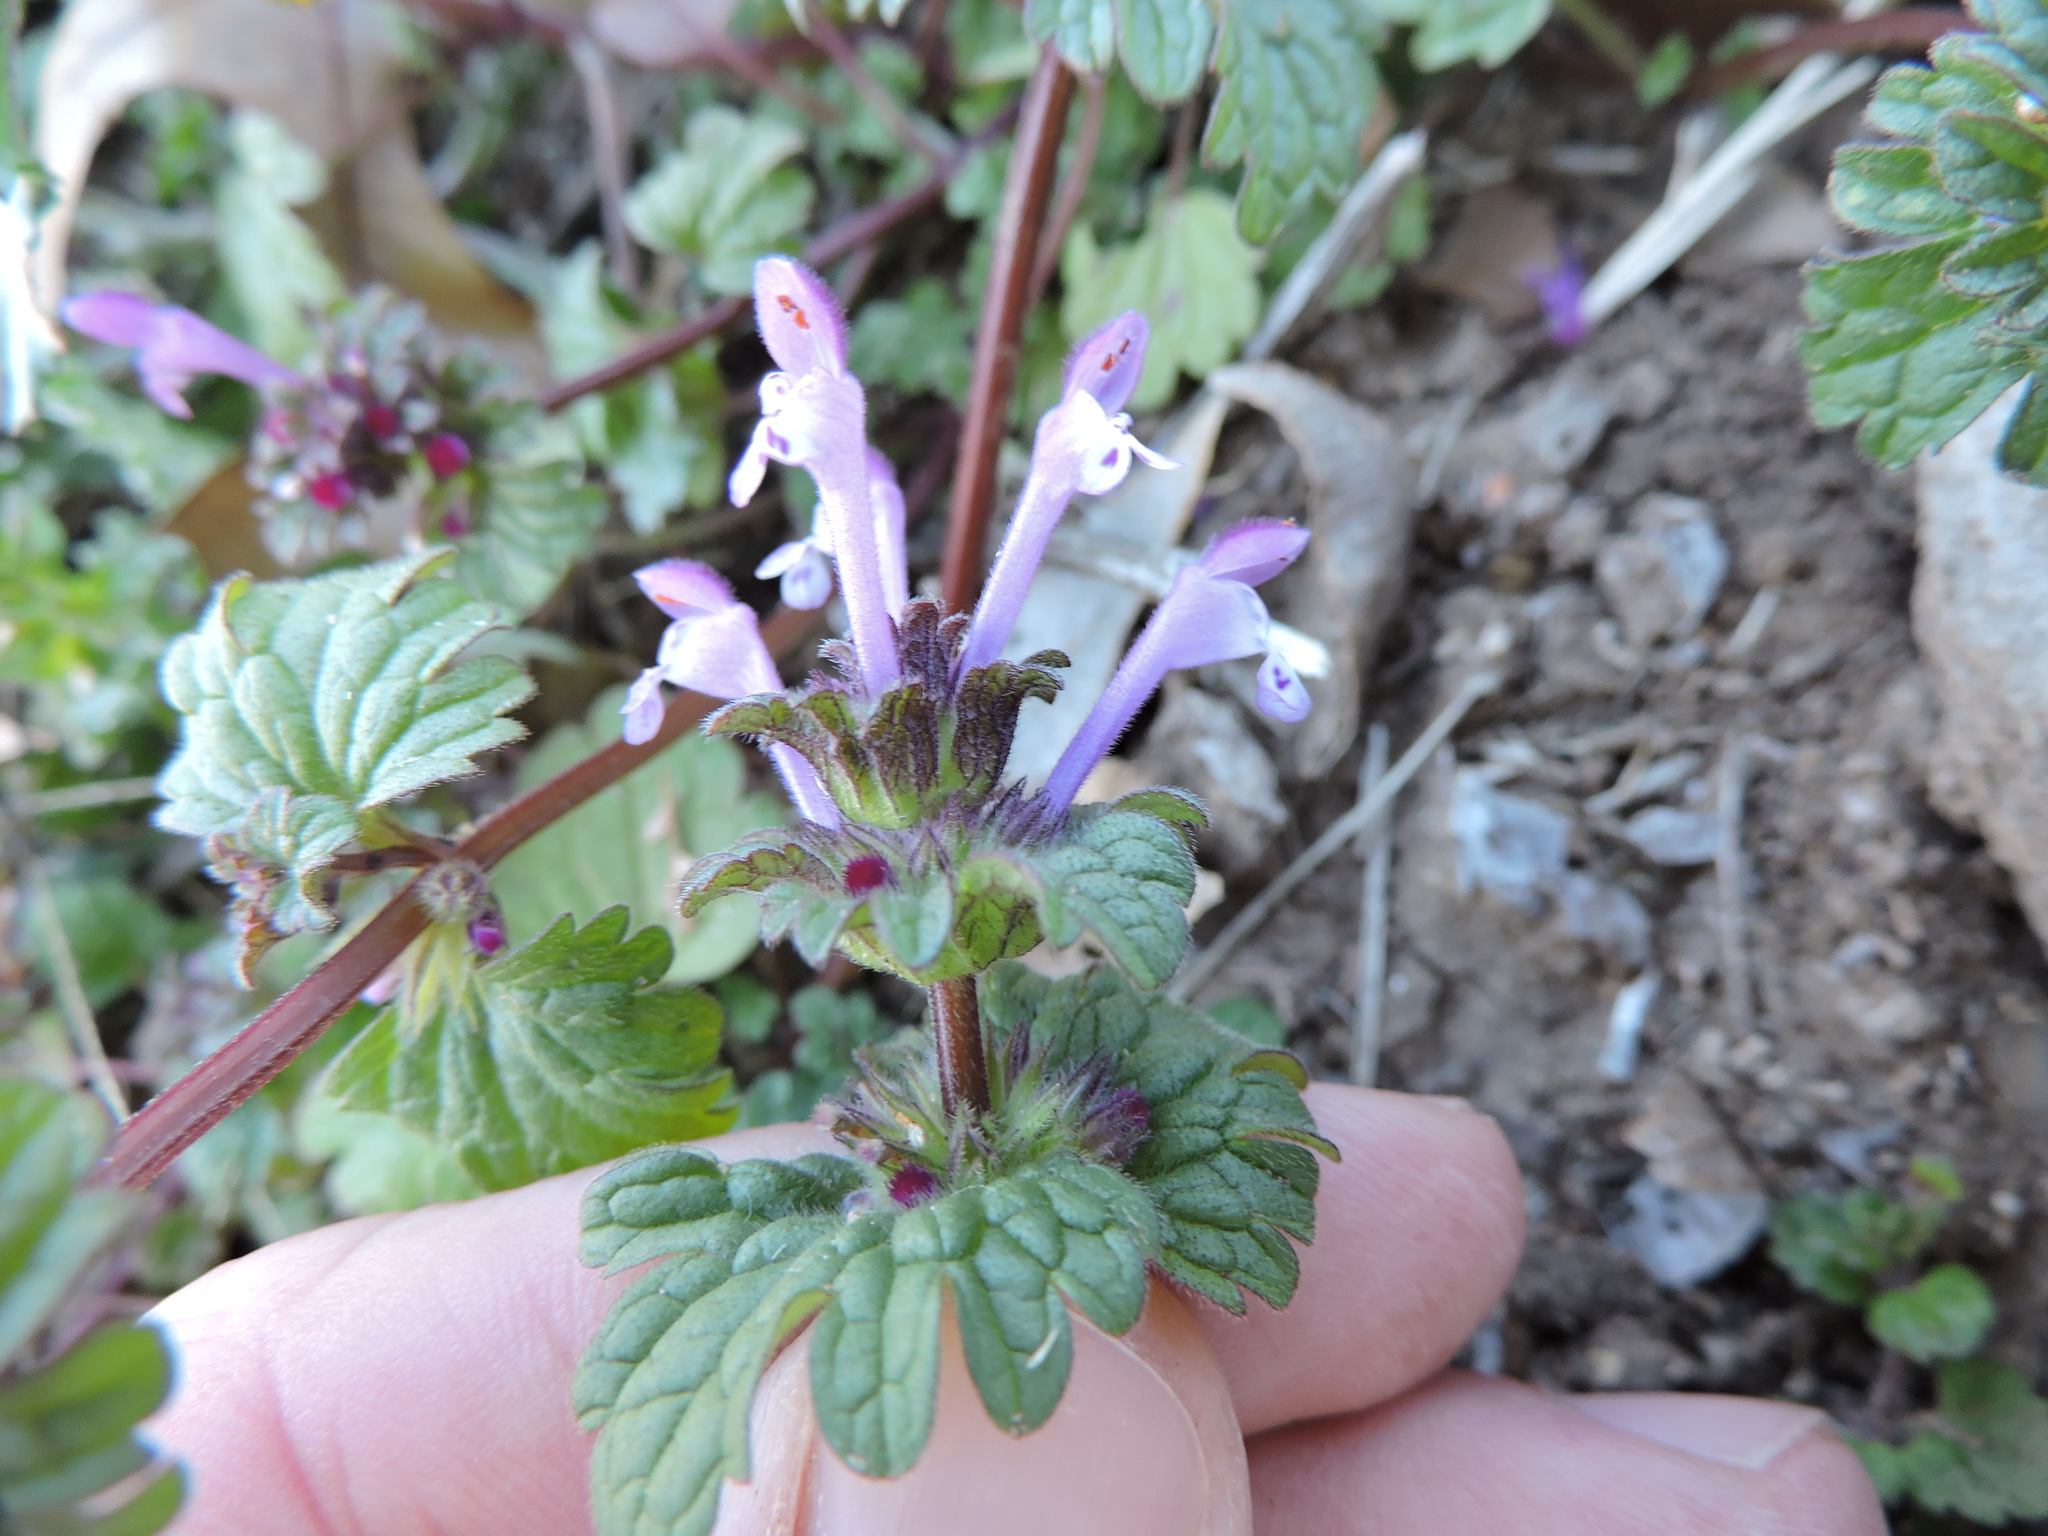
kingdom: Plantae
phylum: Tracheophyta
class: Magnoliopsida
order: Lamiales
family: Lamiaceae
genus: Lamium
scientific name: Lamium amplexicaule
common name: Henbit dead-nettle
